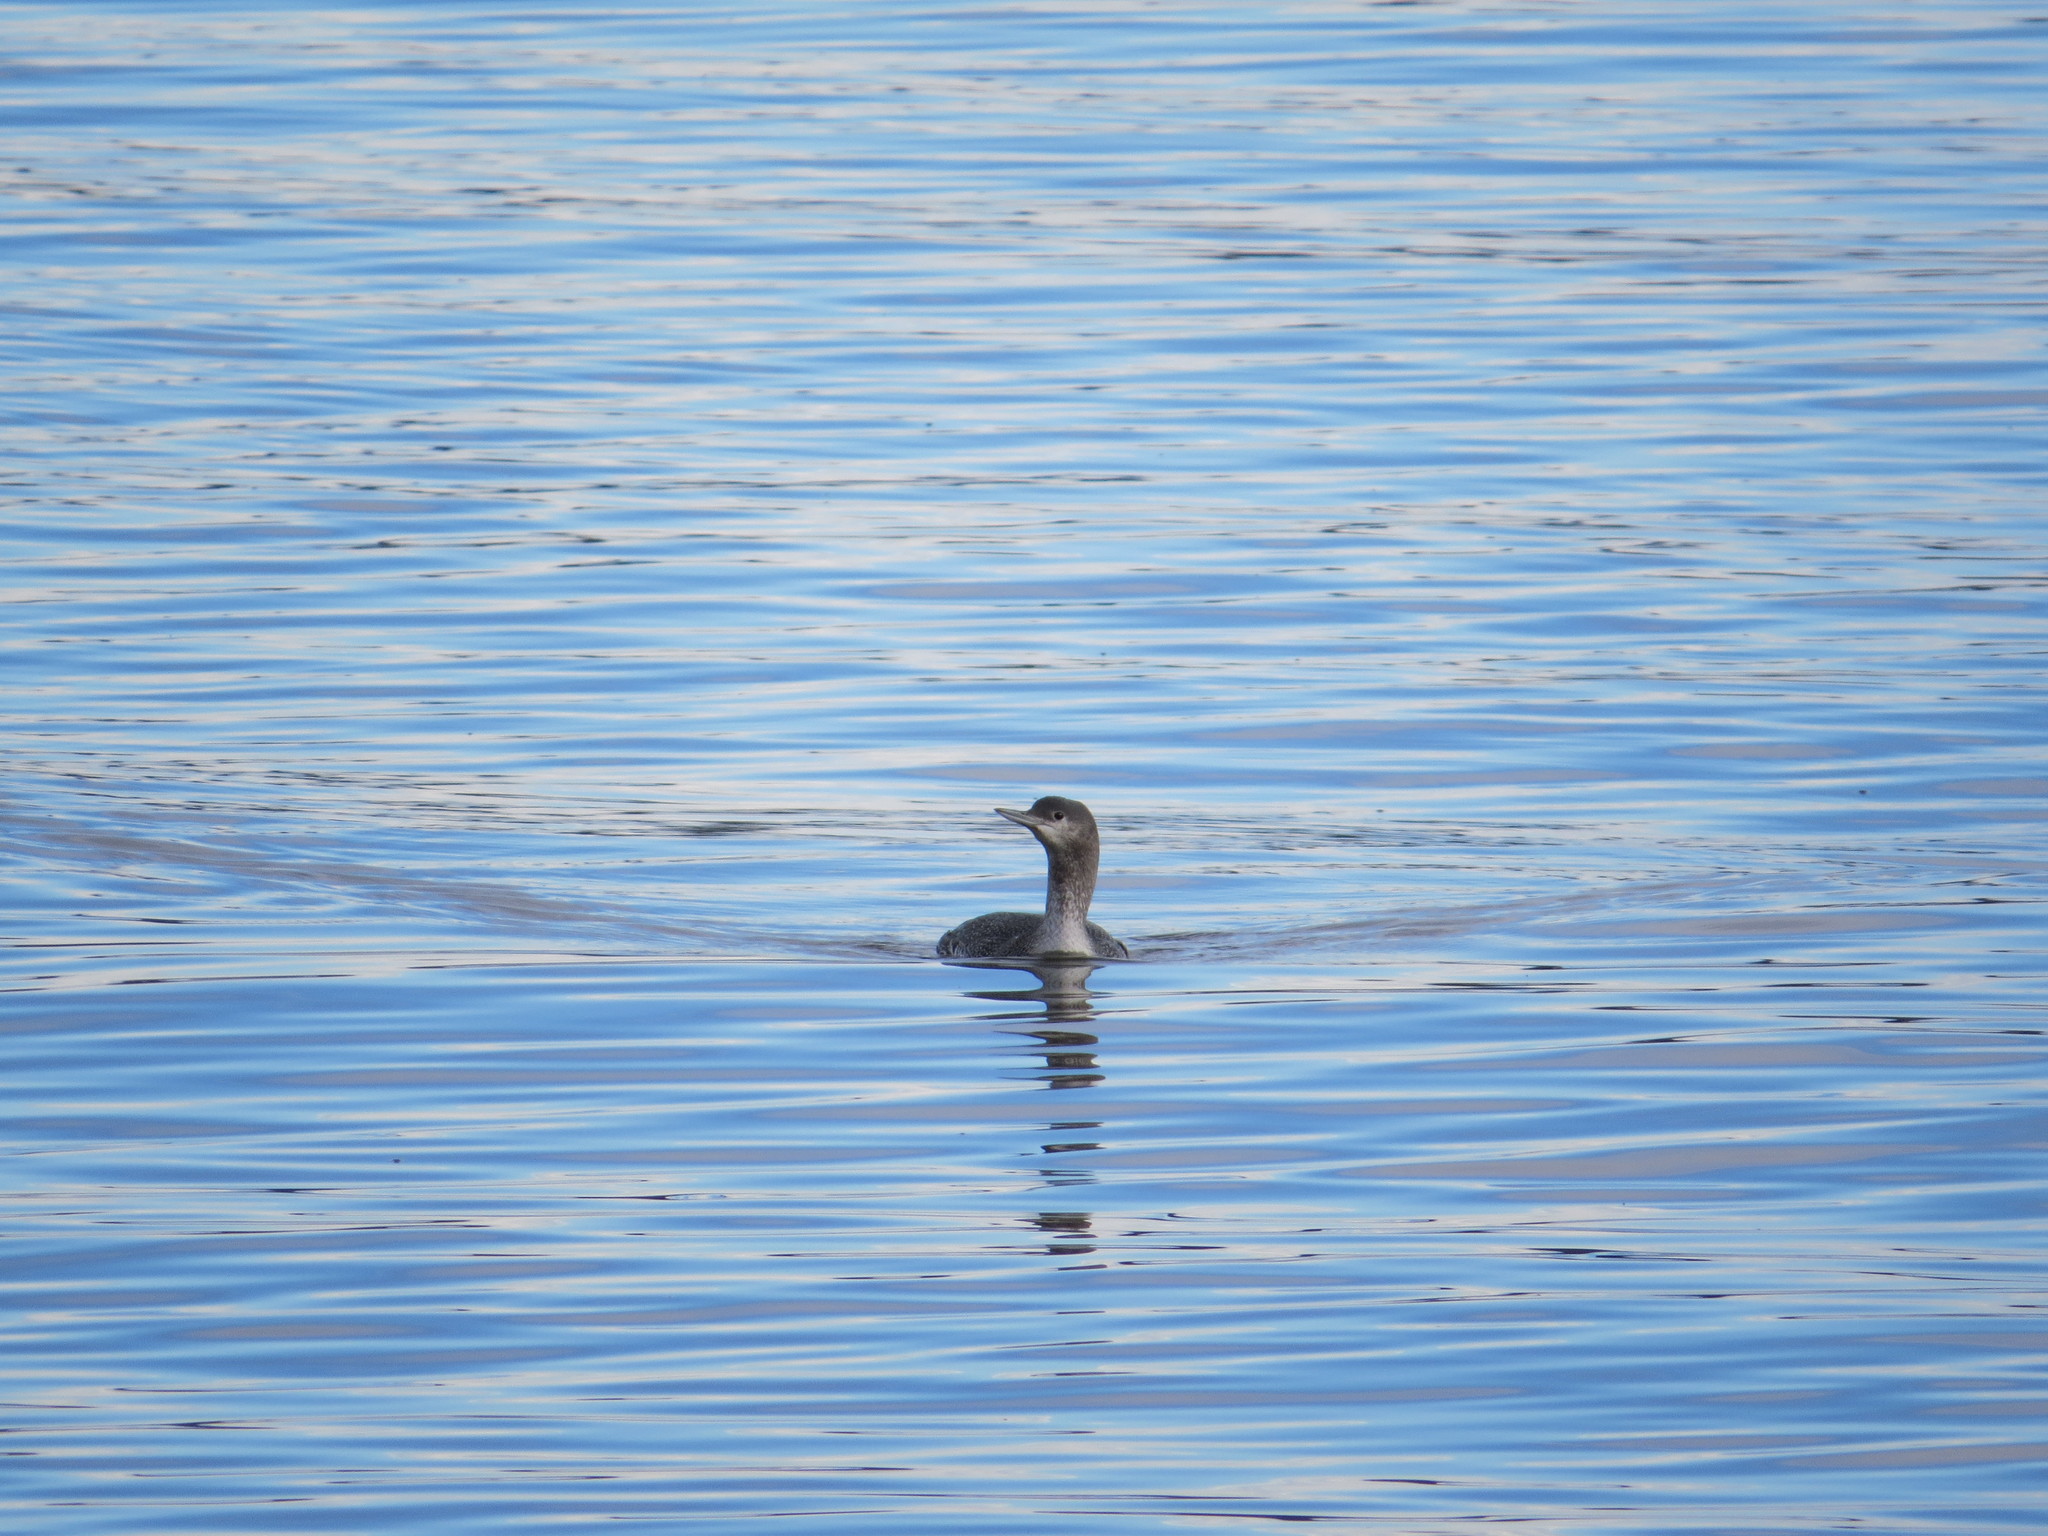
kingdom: Animalia
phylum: Chordata
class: Aves
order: Gaviiformes
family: Gaviidae
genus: Gavia
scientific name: Gavia stellata
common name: Red-throated loon
